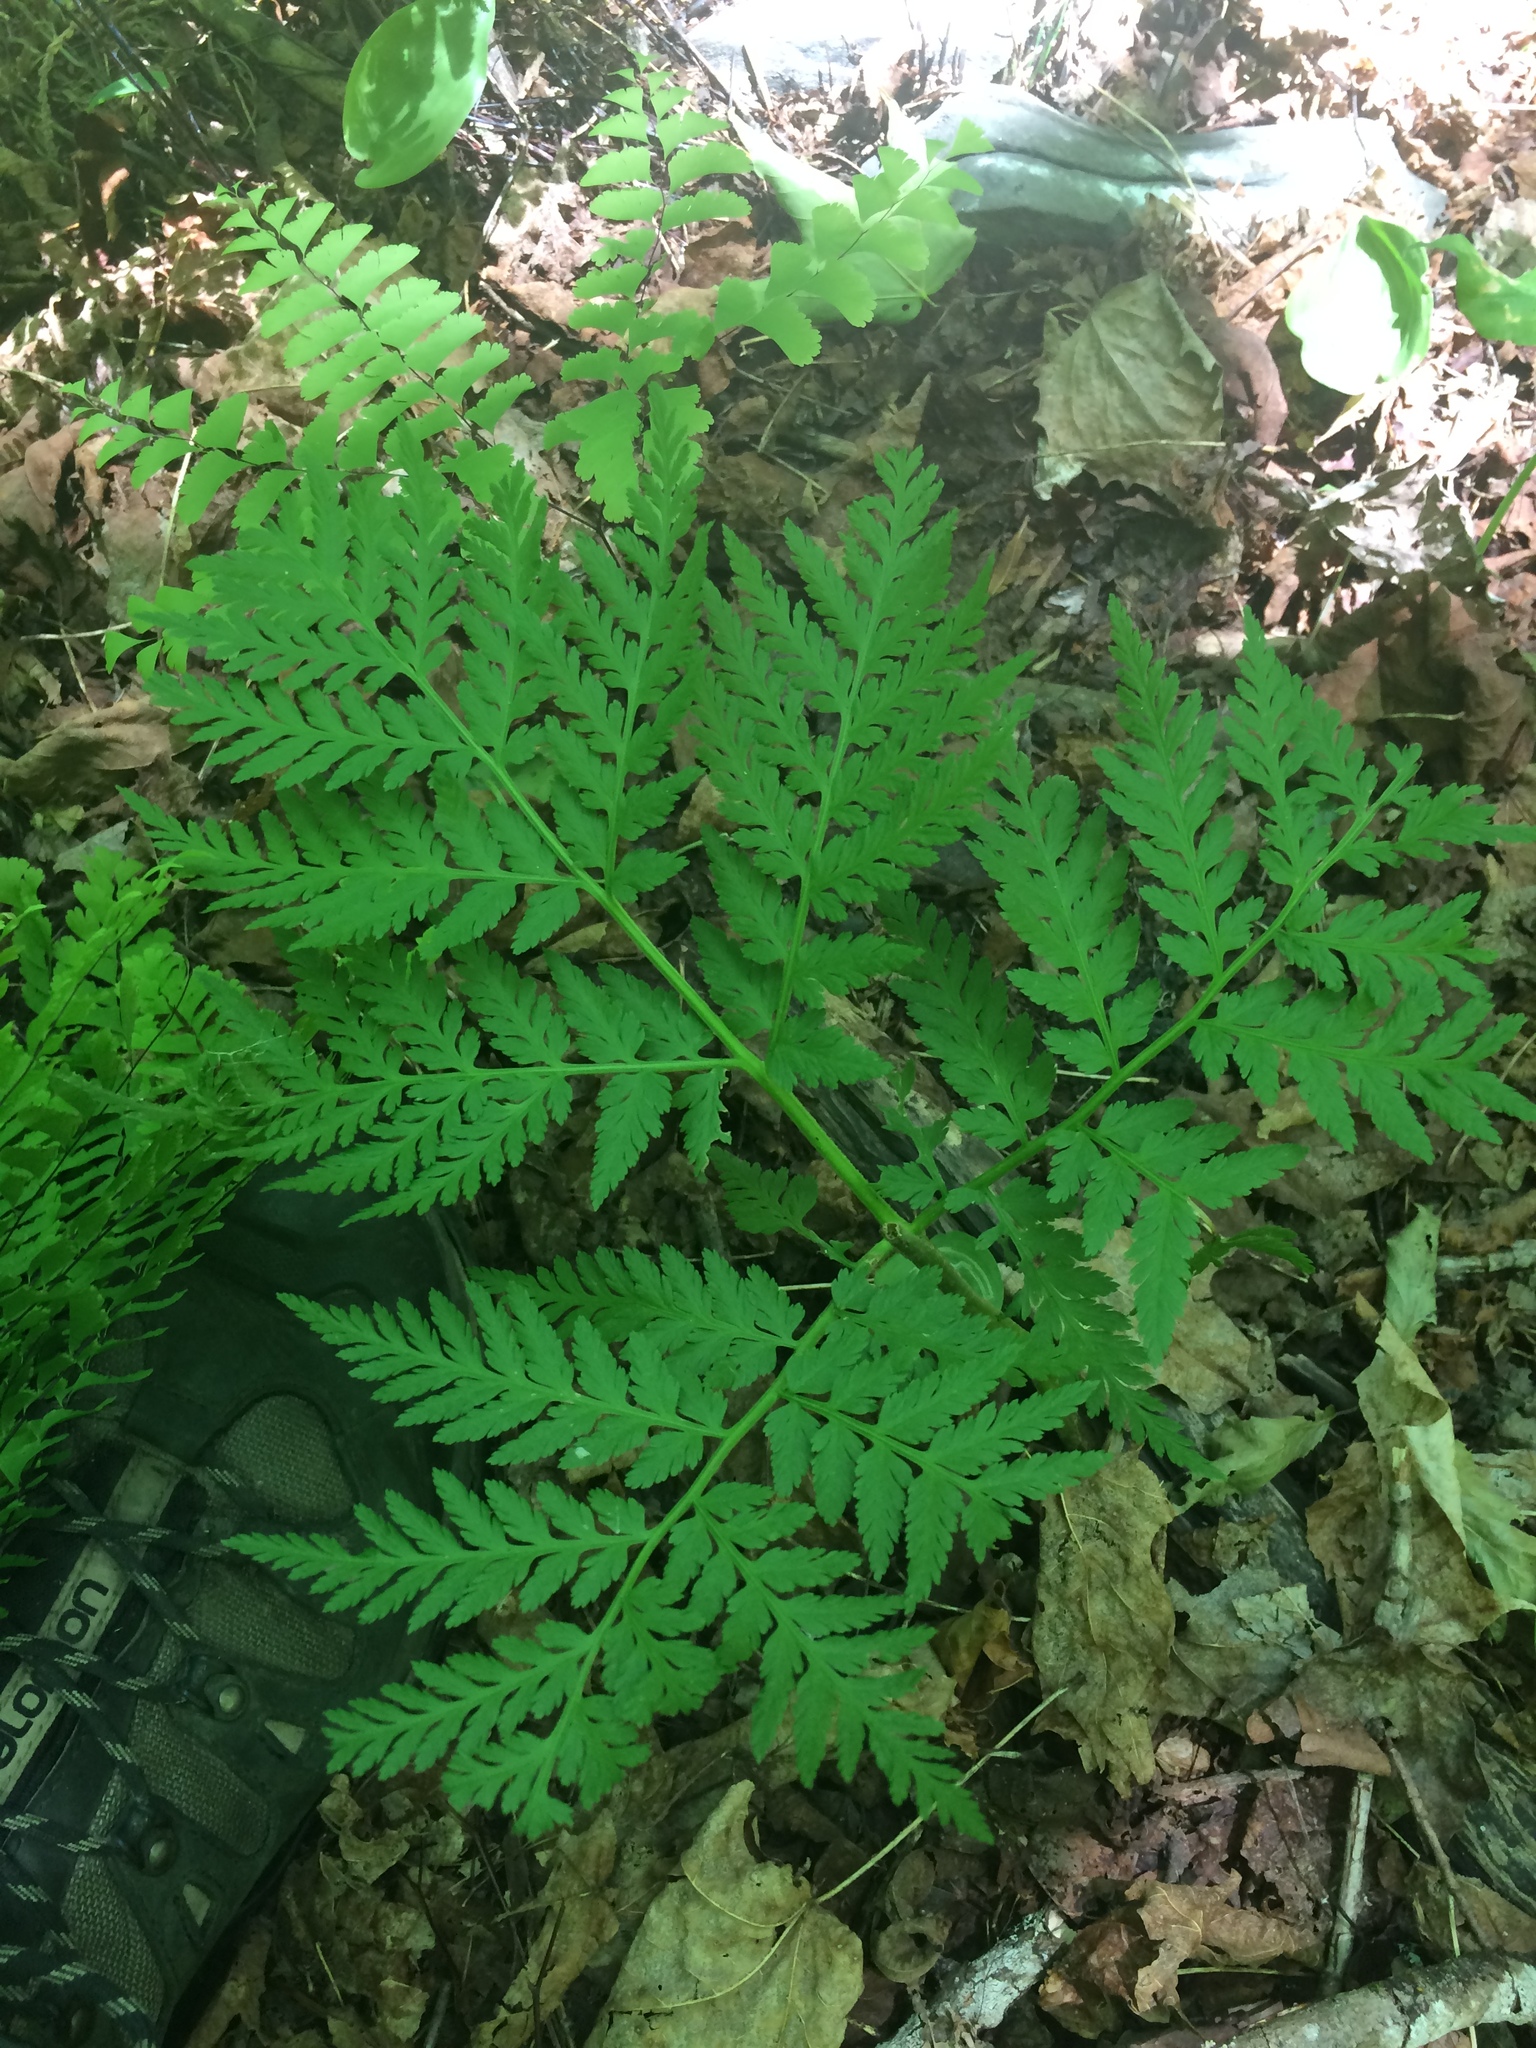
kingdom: Plantae
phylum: Tracheophyta
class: Polypodiopsida
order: Ophioglossales
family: Ophioglossaceae
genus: Botrypus
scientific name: Botrypus virginianus
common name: Common grapefern
